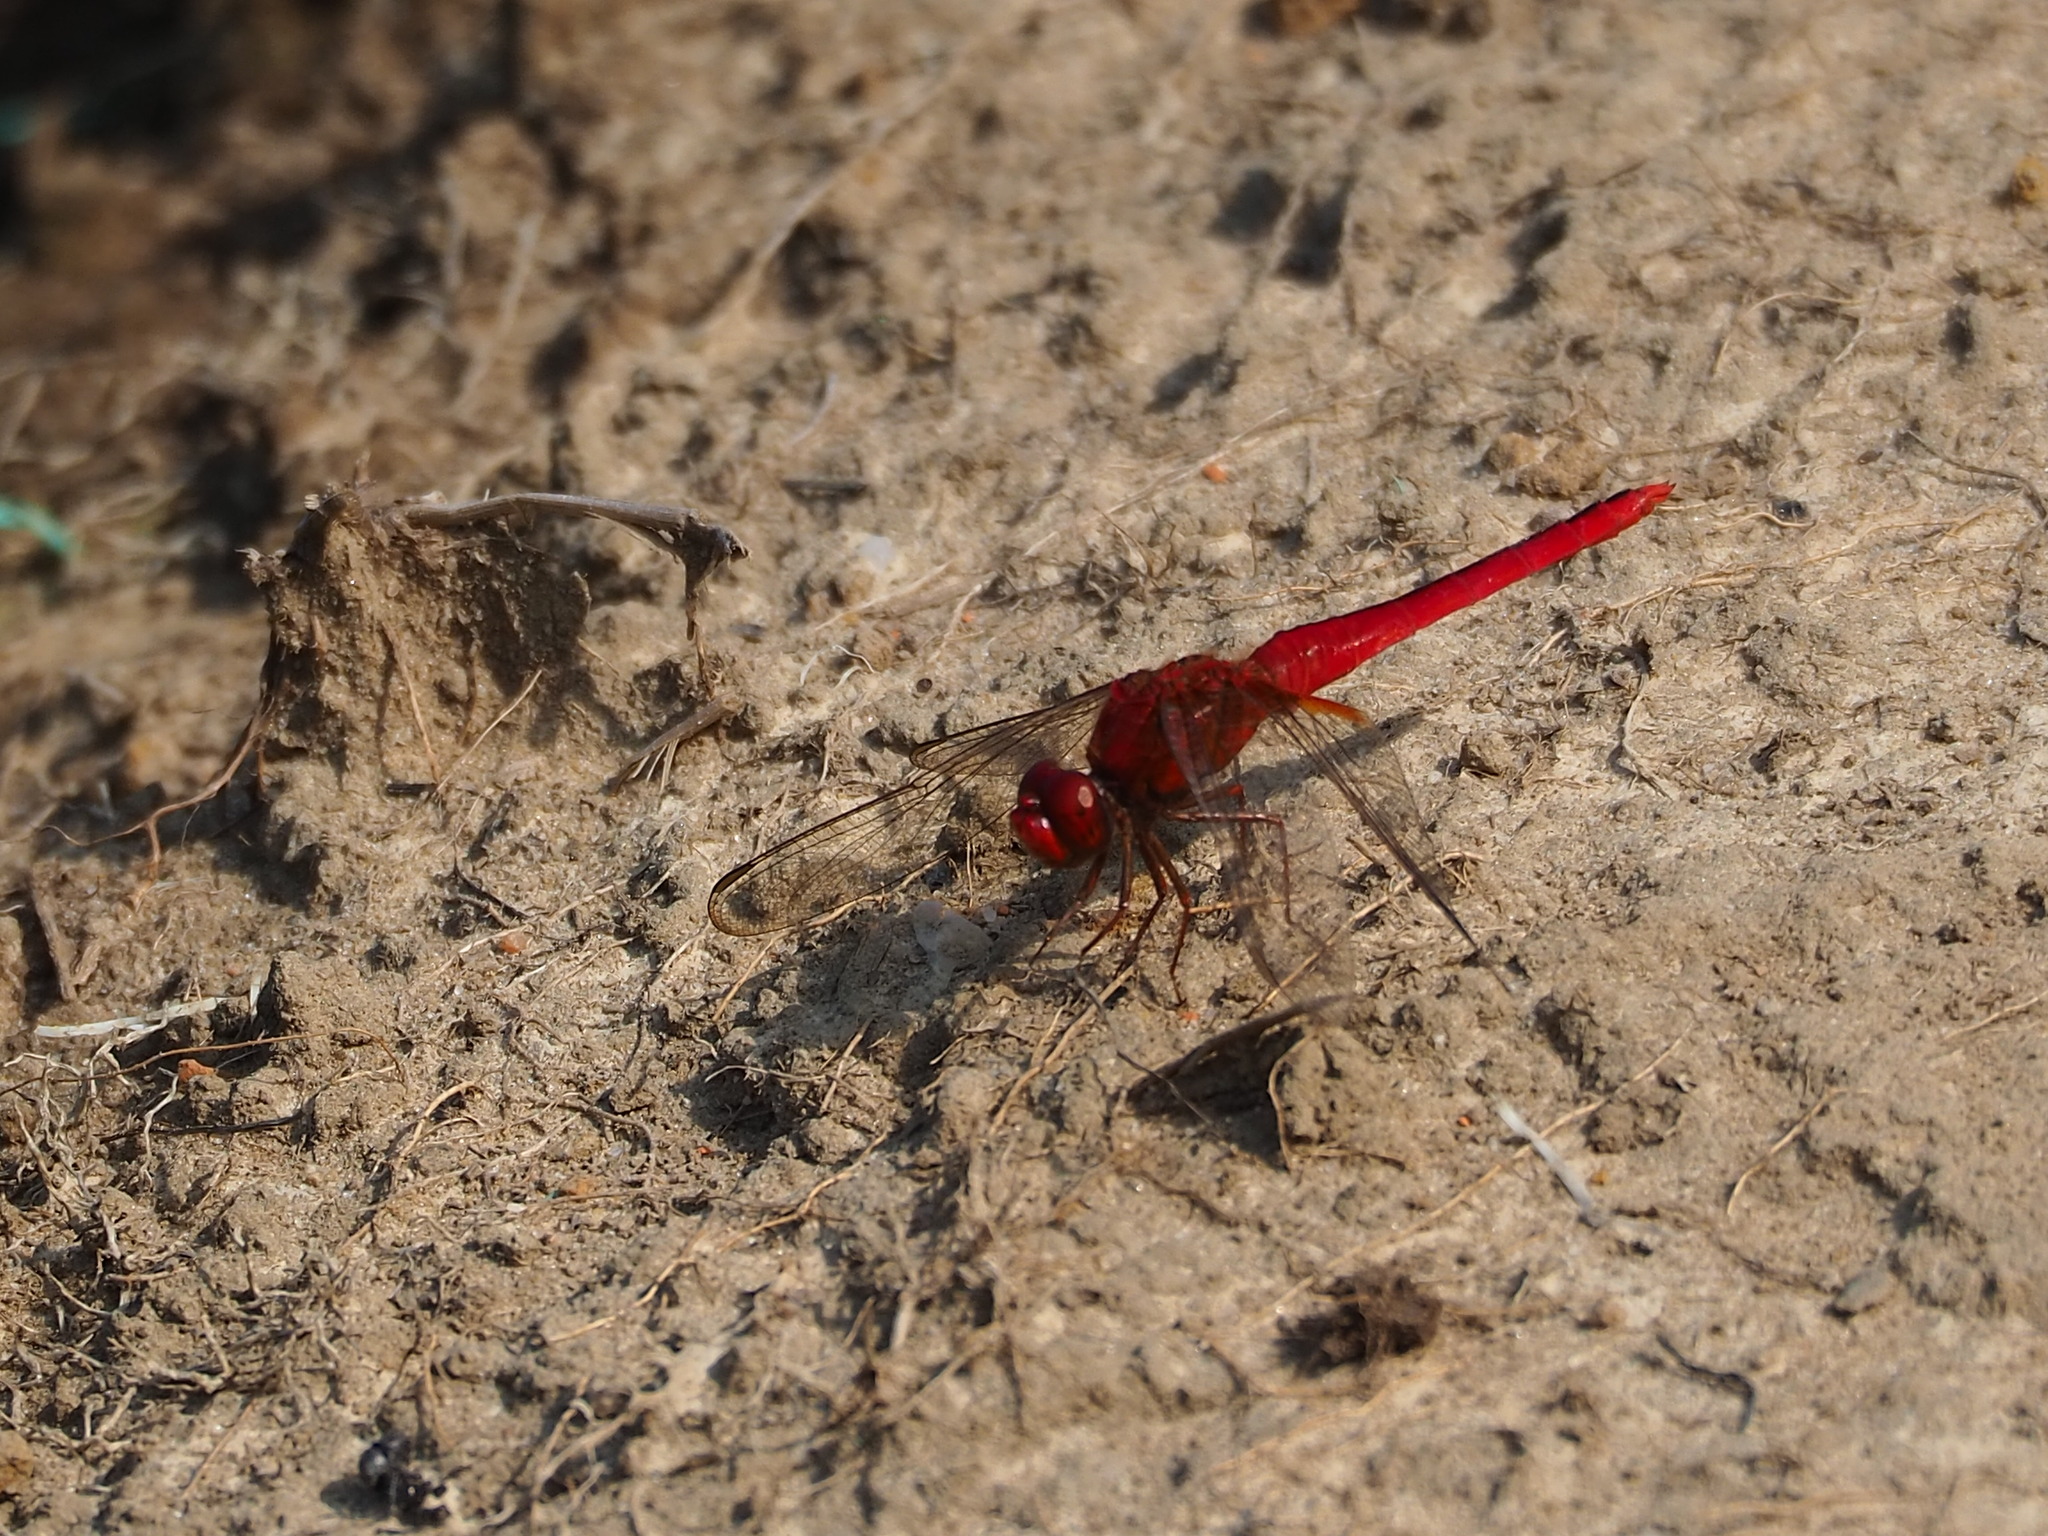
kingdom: Animalia
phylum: Arthropoda
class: Insecta
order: Odonata
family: Libellulidae
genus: Crocothemis
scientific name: Crocothemis servilia
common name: Scarlet skimmer
